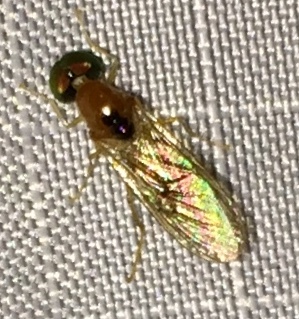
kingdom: Animalia
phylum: Arthropoda
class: Insecta
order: Diptera
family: Stratiomyidae
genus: Sargus
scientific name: Sargus elegans
